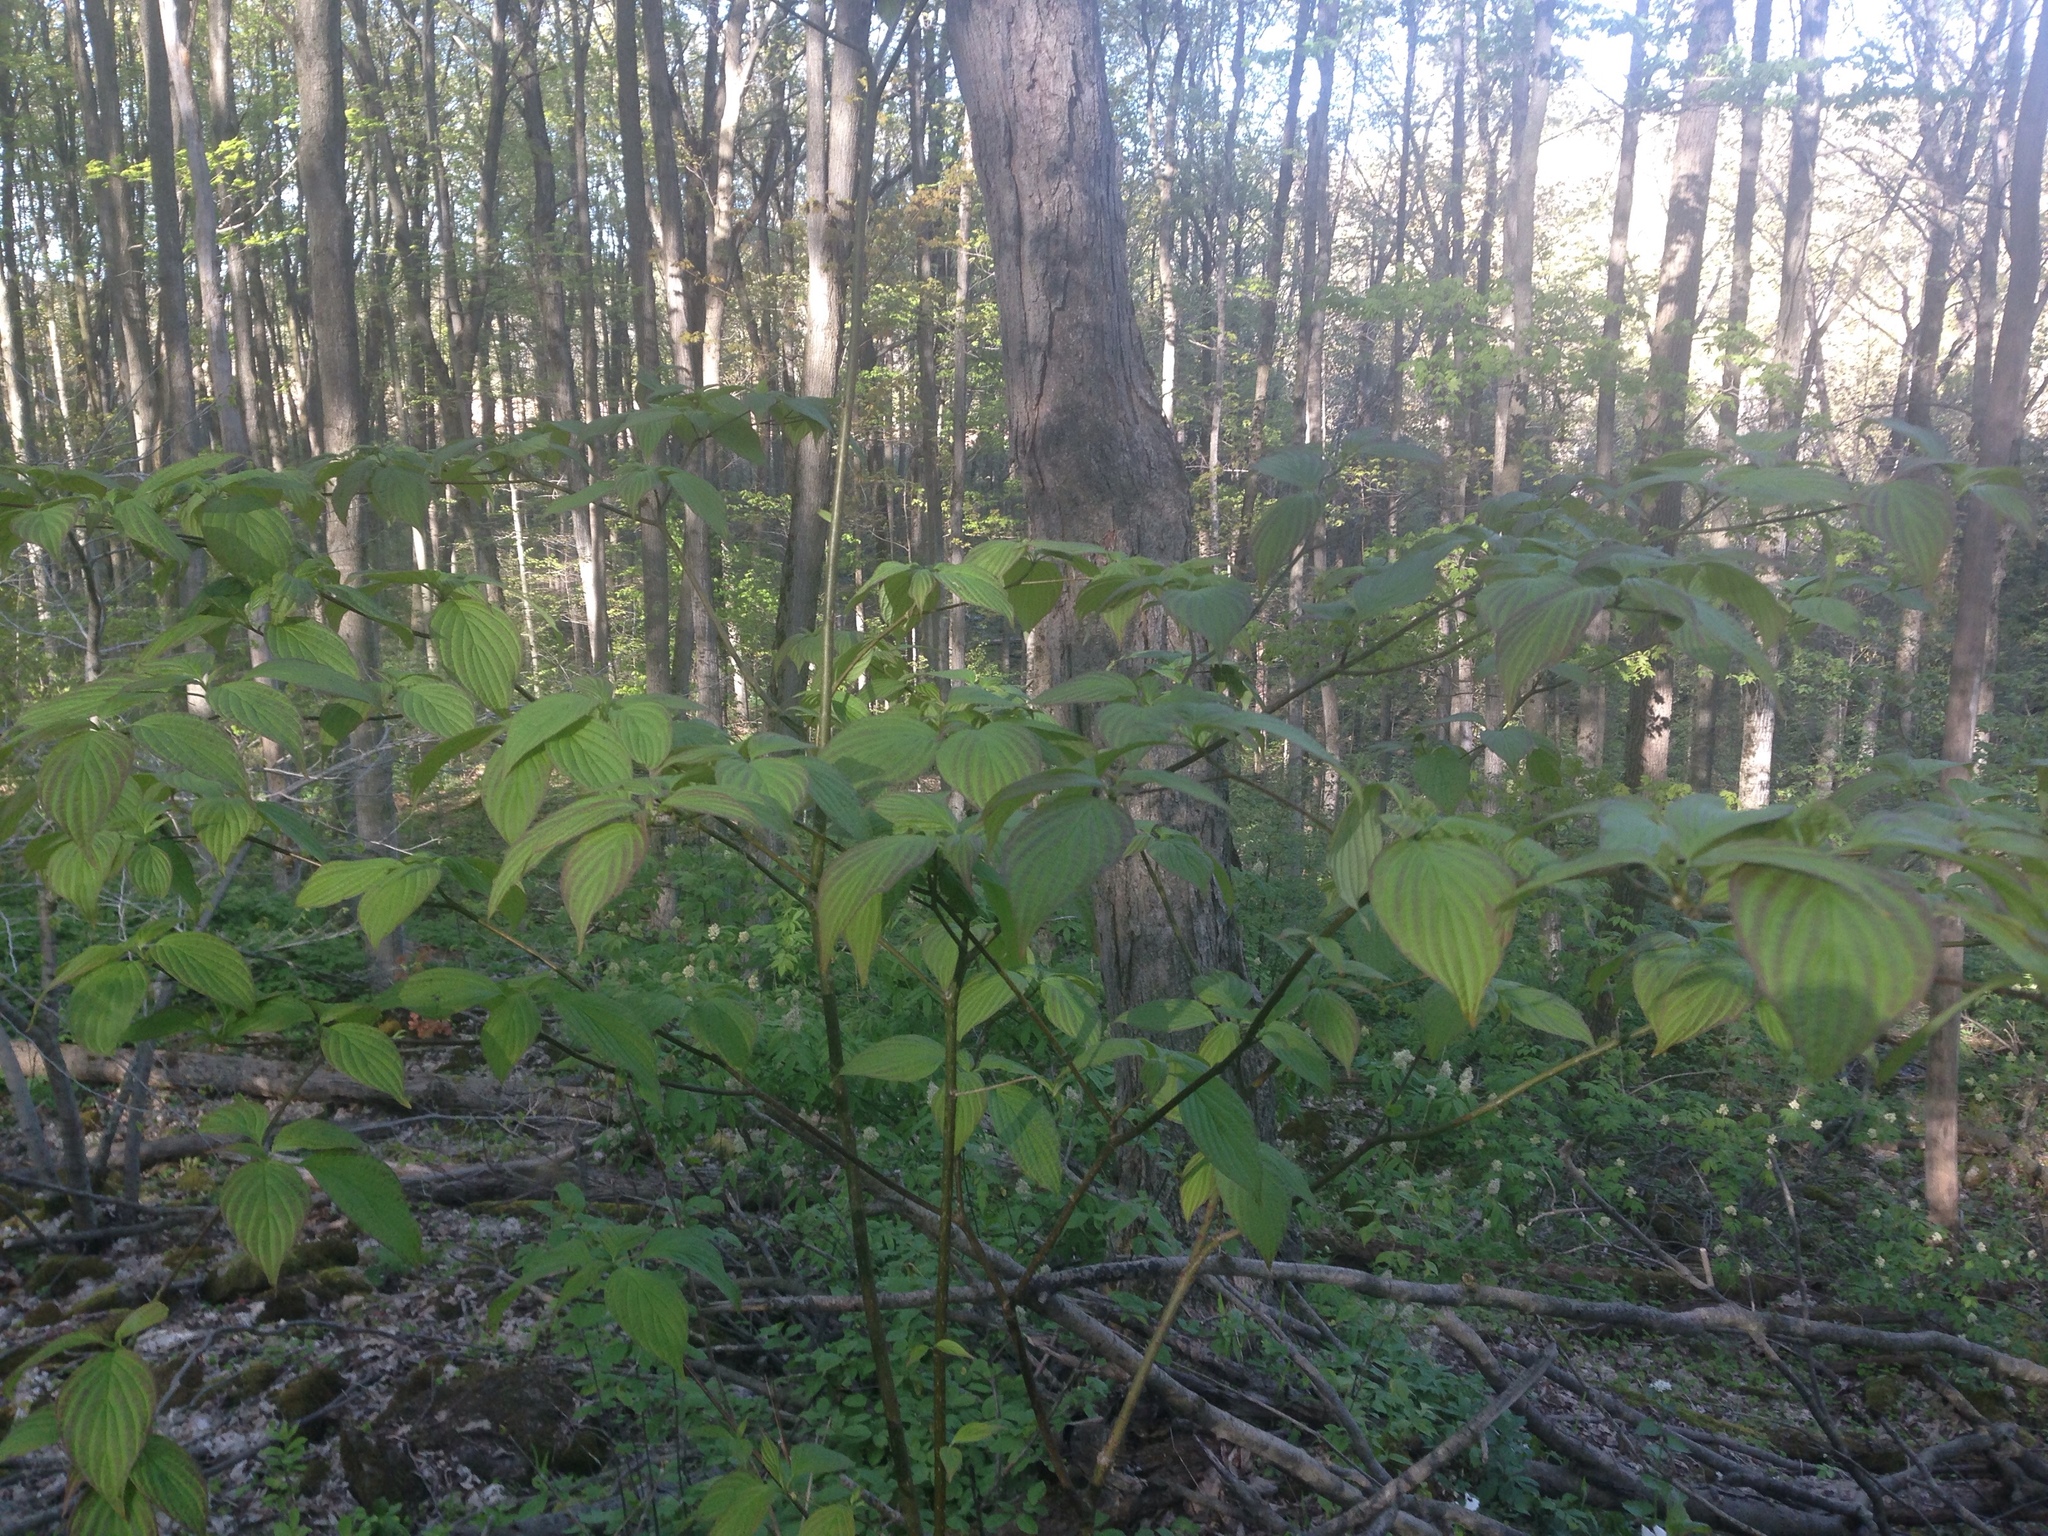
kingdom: Plantae
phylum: Tracheophyta
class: Magnoliopsida
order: Cornales
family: Cornaceae
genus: Cornus
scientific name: Cornus alternifolia
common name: Pagoda dogwood
